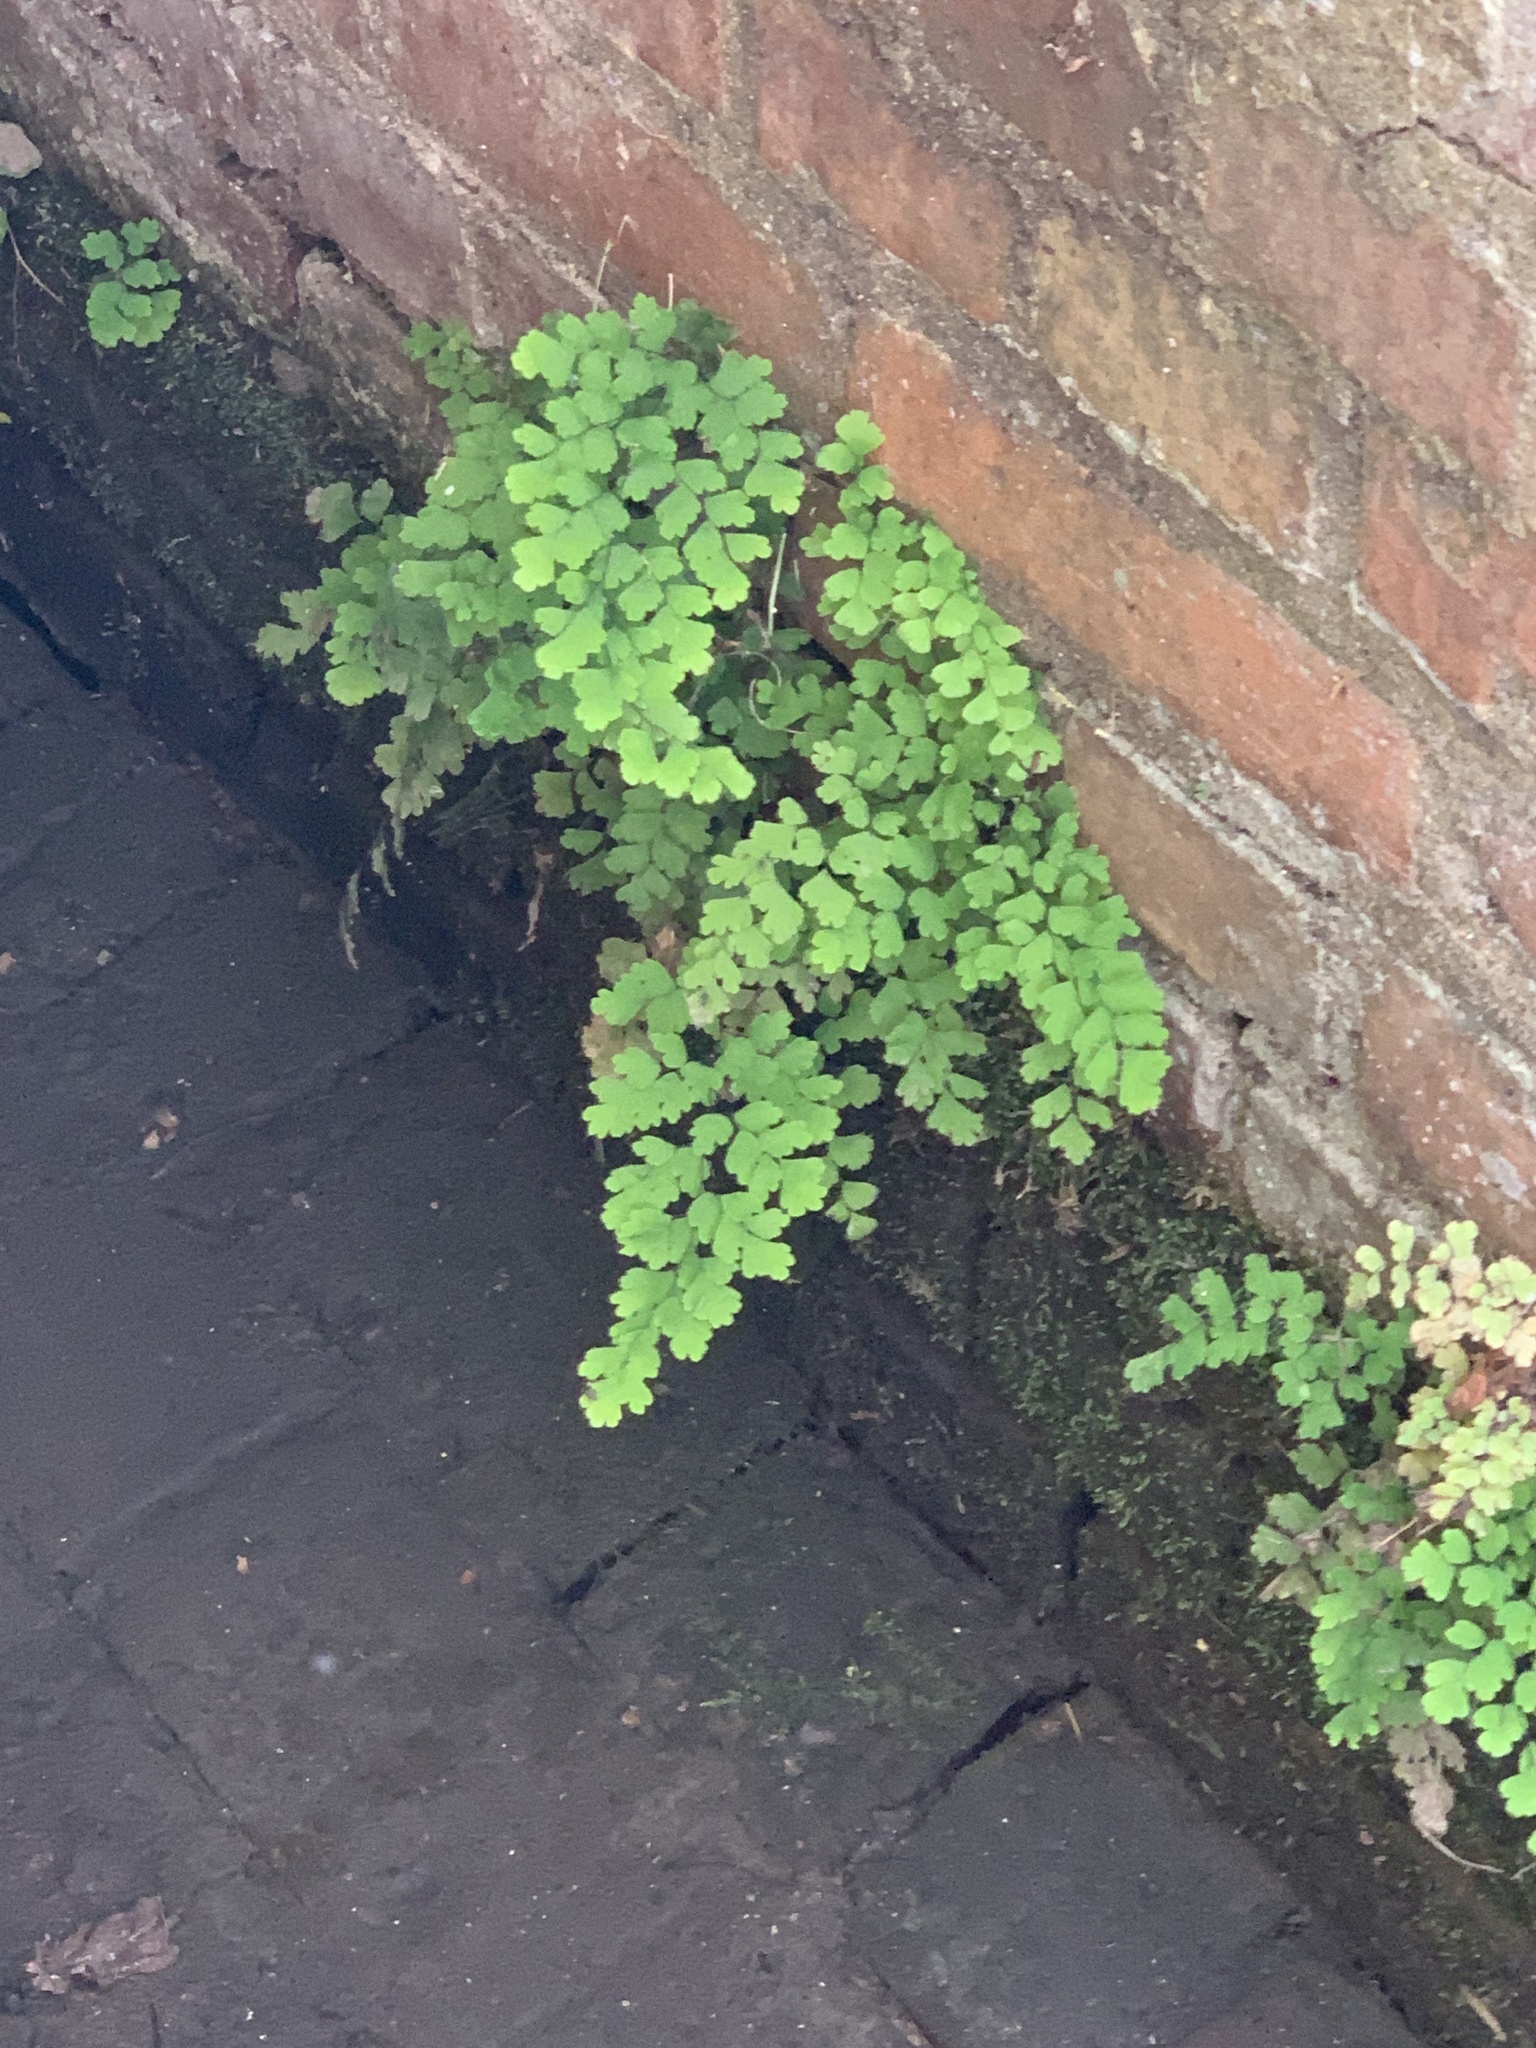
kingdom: Plantae
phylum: Tracheophyta
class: Polypodiopsida
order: Polypodiales
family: Pteridaceae
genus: Adiantum
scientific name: Adiantum capillus-veneris
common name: Maidenhair fern
